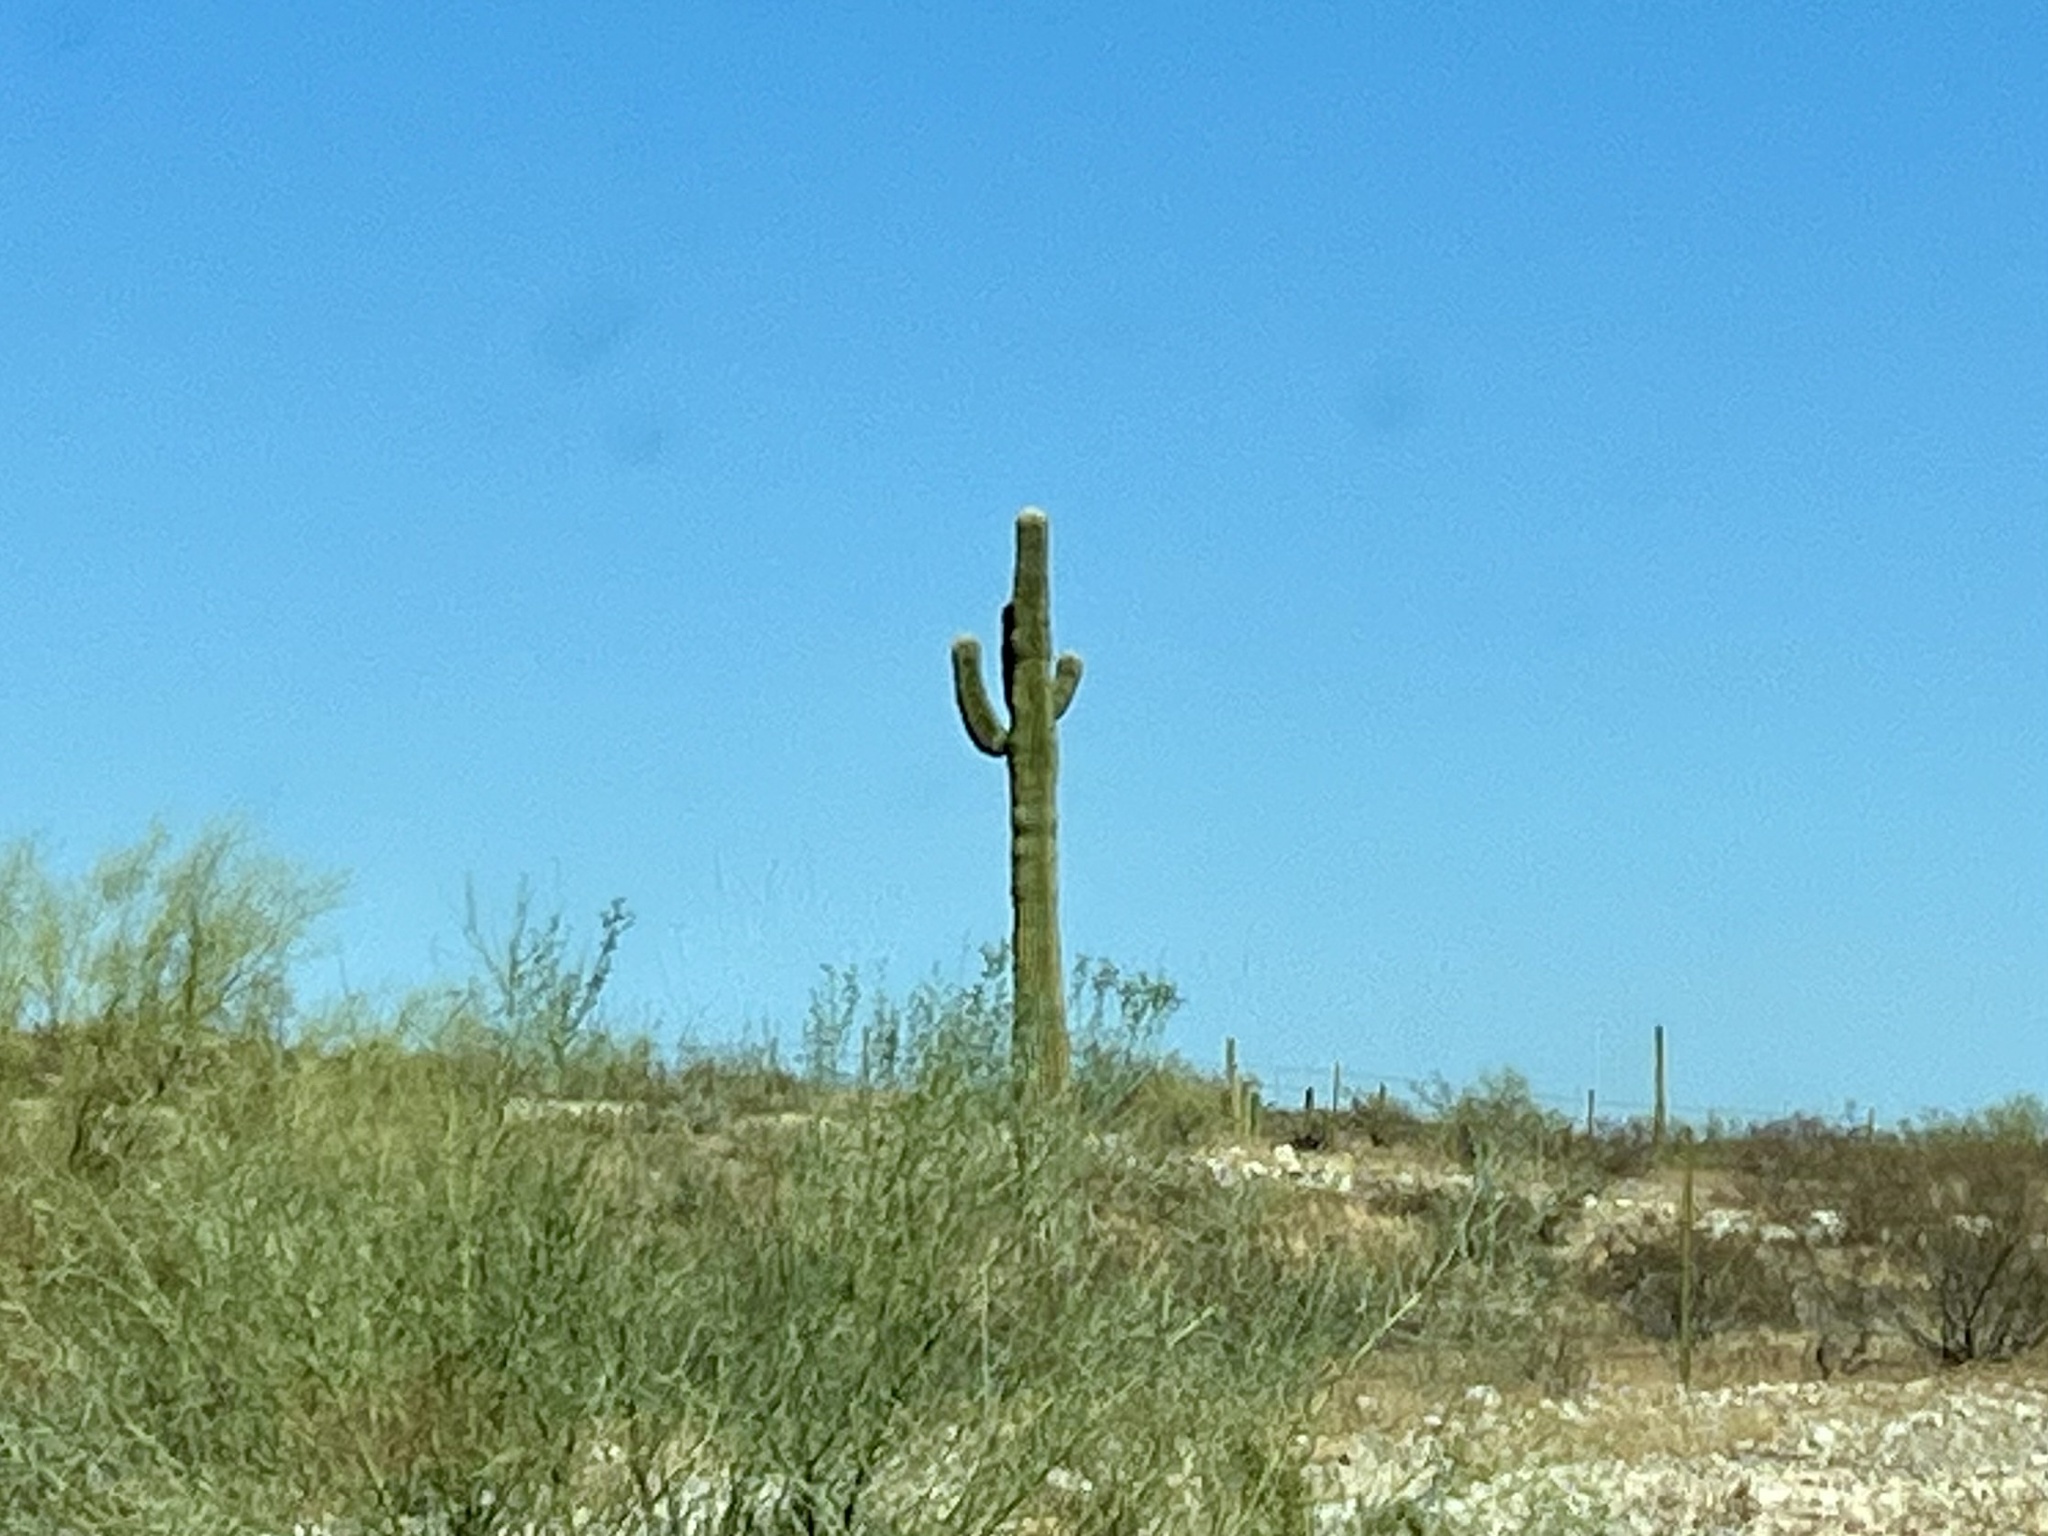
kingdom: Plantae
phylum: Tracheophyta
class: Magnoliopsida
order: Caryophyllales
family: Cactaceae
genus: Carnegiea
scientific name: Carnegiea gigantea
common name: Saguaro
